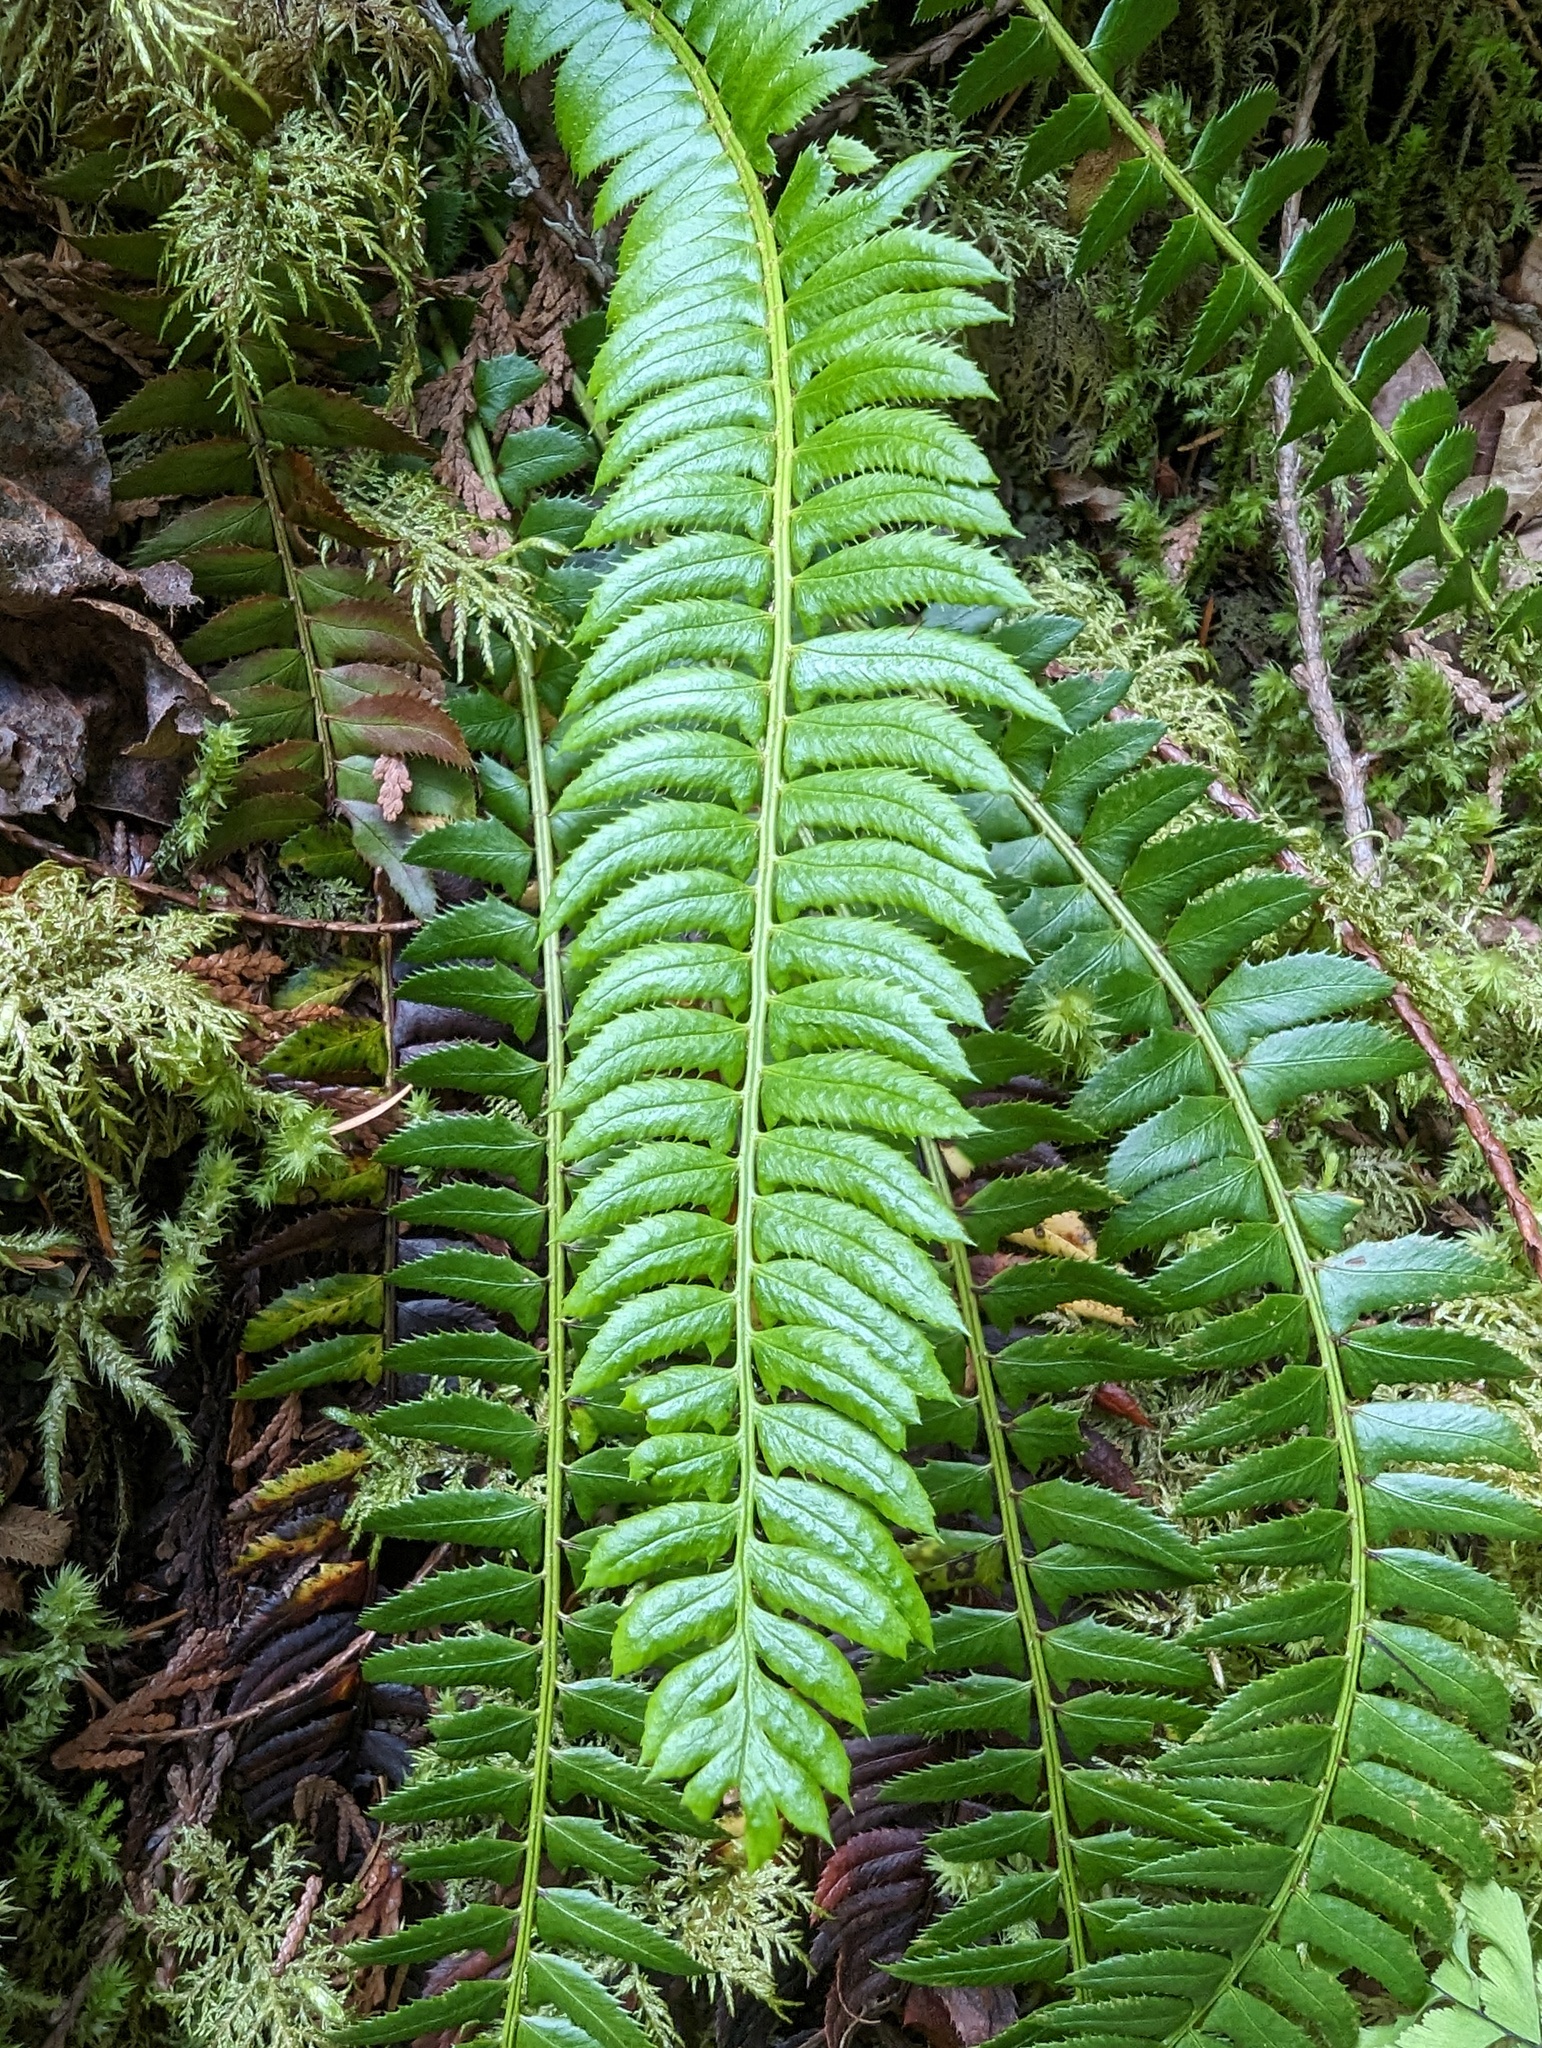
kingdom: Plantae
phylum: Tracheophyta
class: Polypodiopsida
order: Polypodiales
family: Dryopteridaceae
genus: Polystichum
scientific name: Polystichum lonchitis
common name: Holly fern
